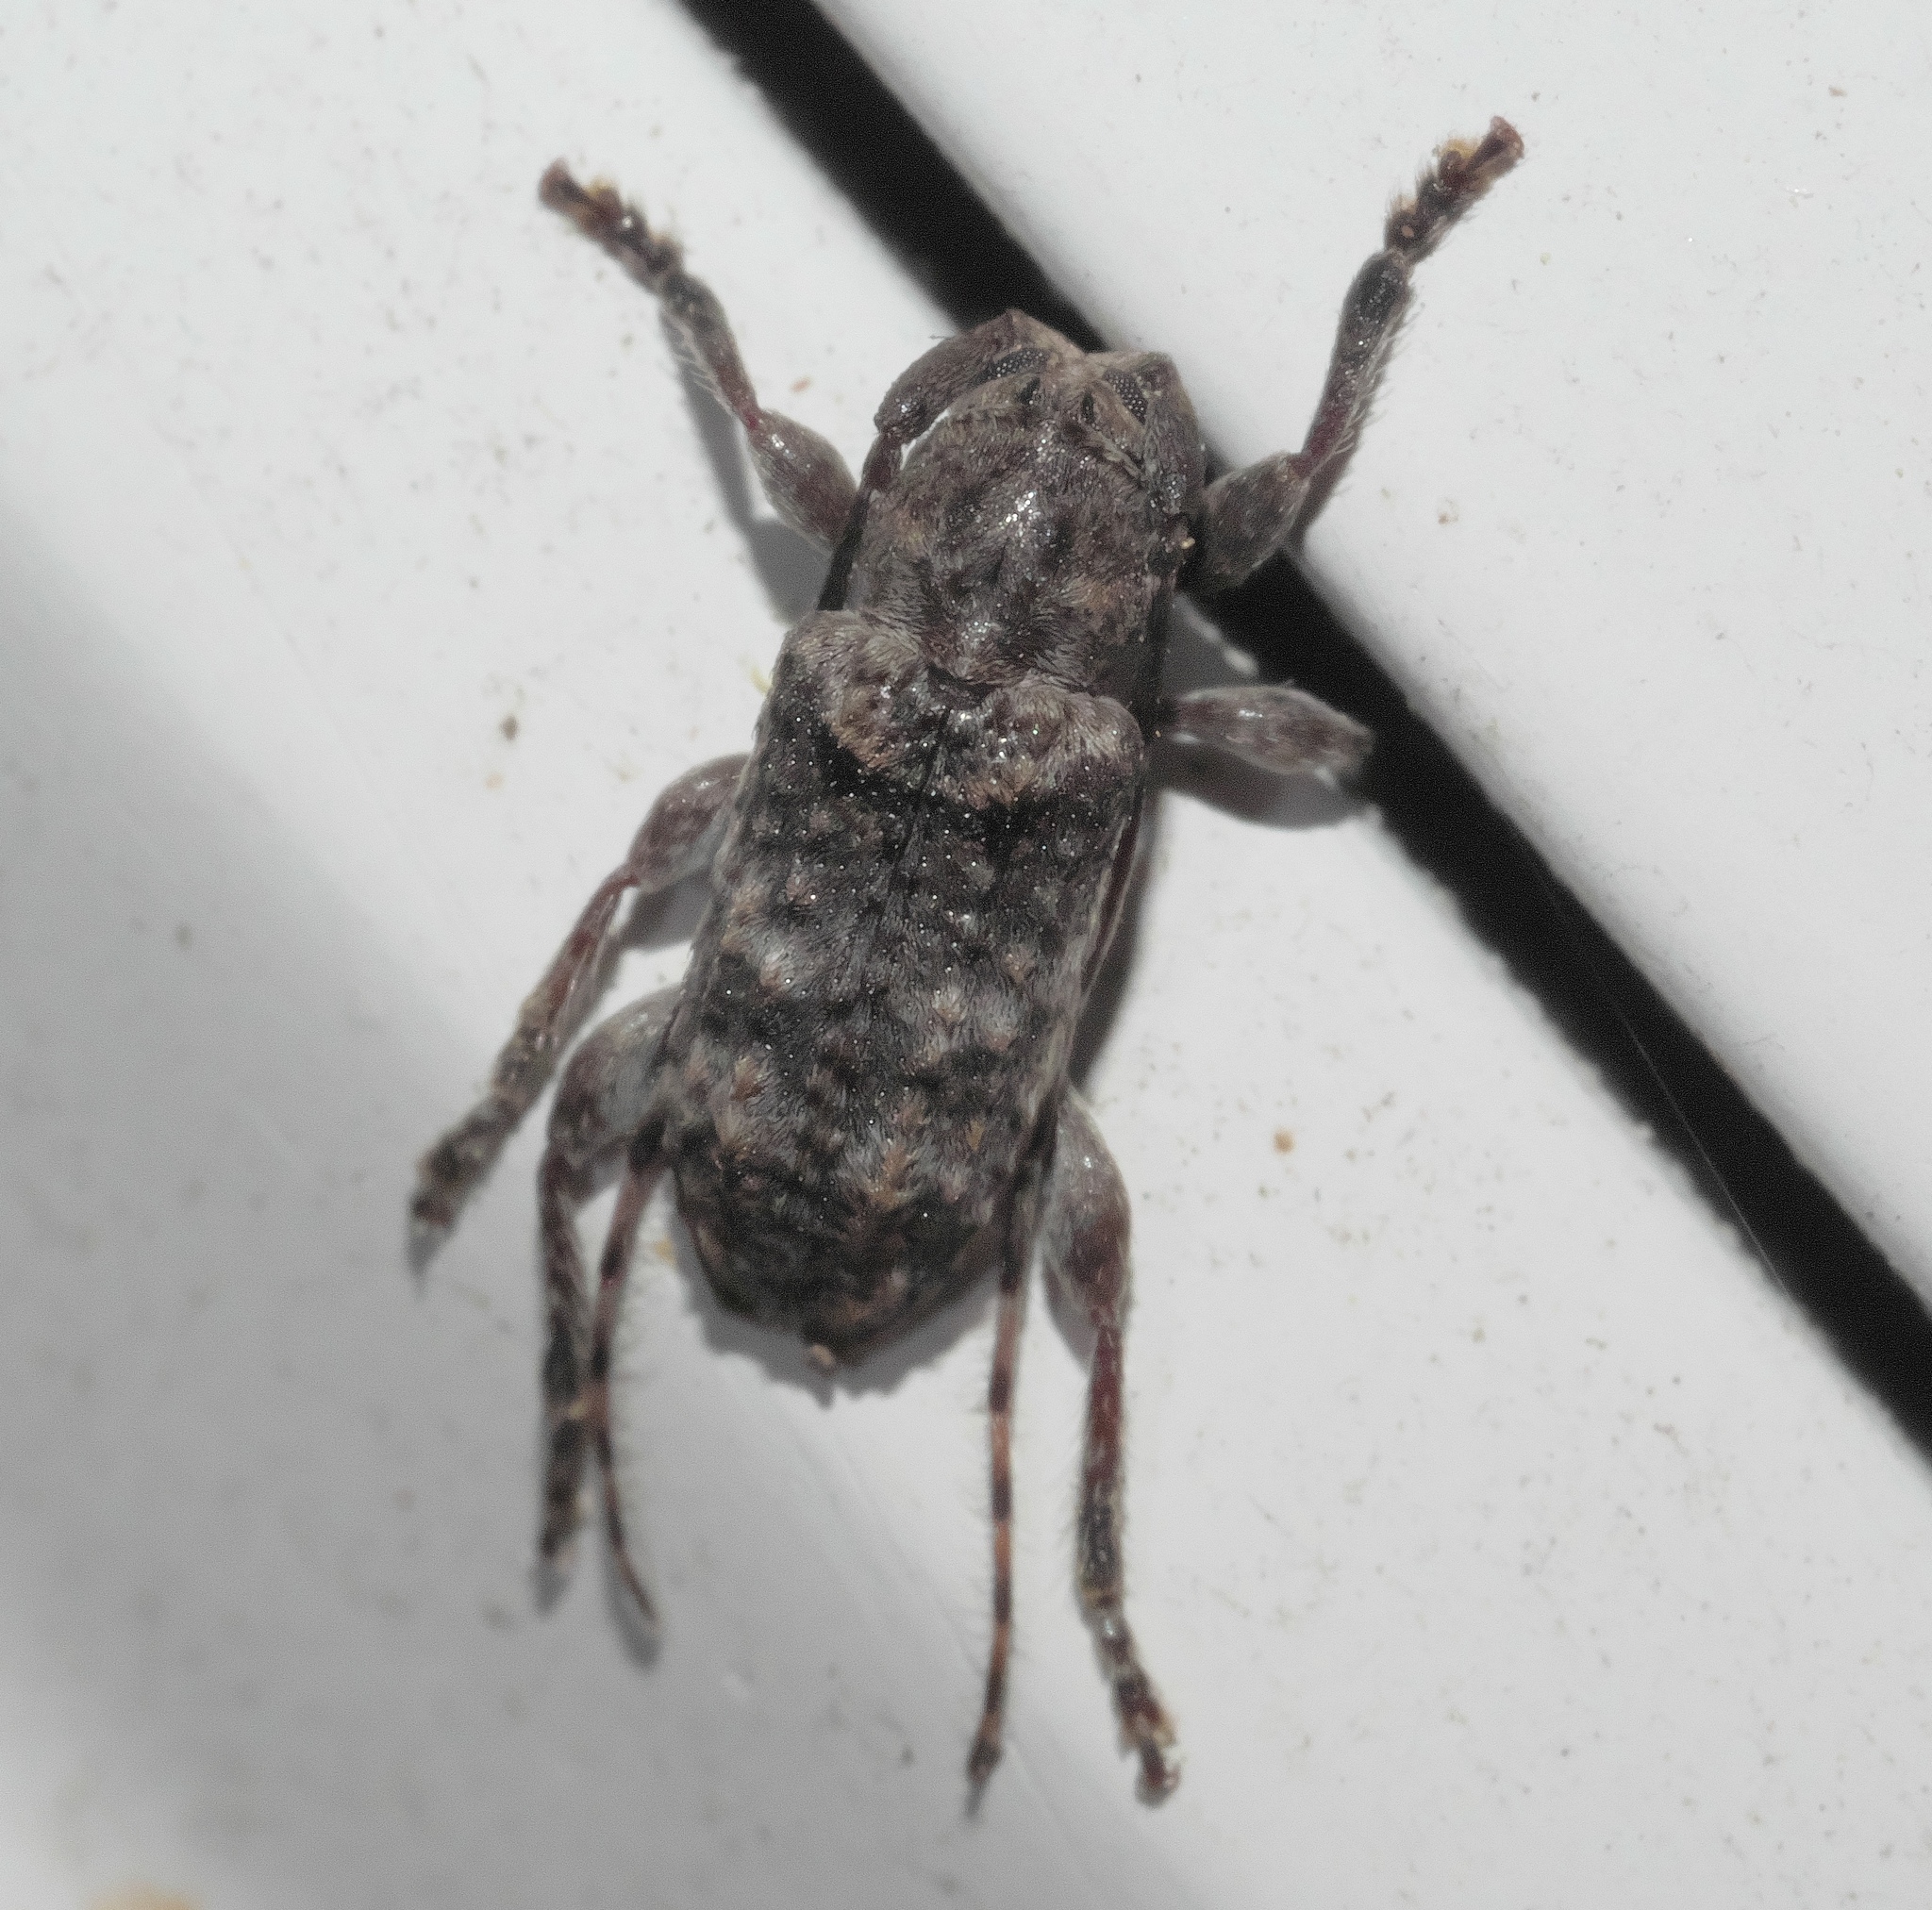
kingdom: Animalia
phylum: Arthropoda
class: Insecta
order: Coleoptera
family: Cerambycidae
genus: Ecyrus
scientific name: Ecyrus dasycerus
